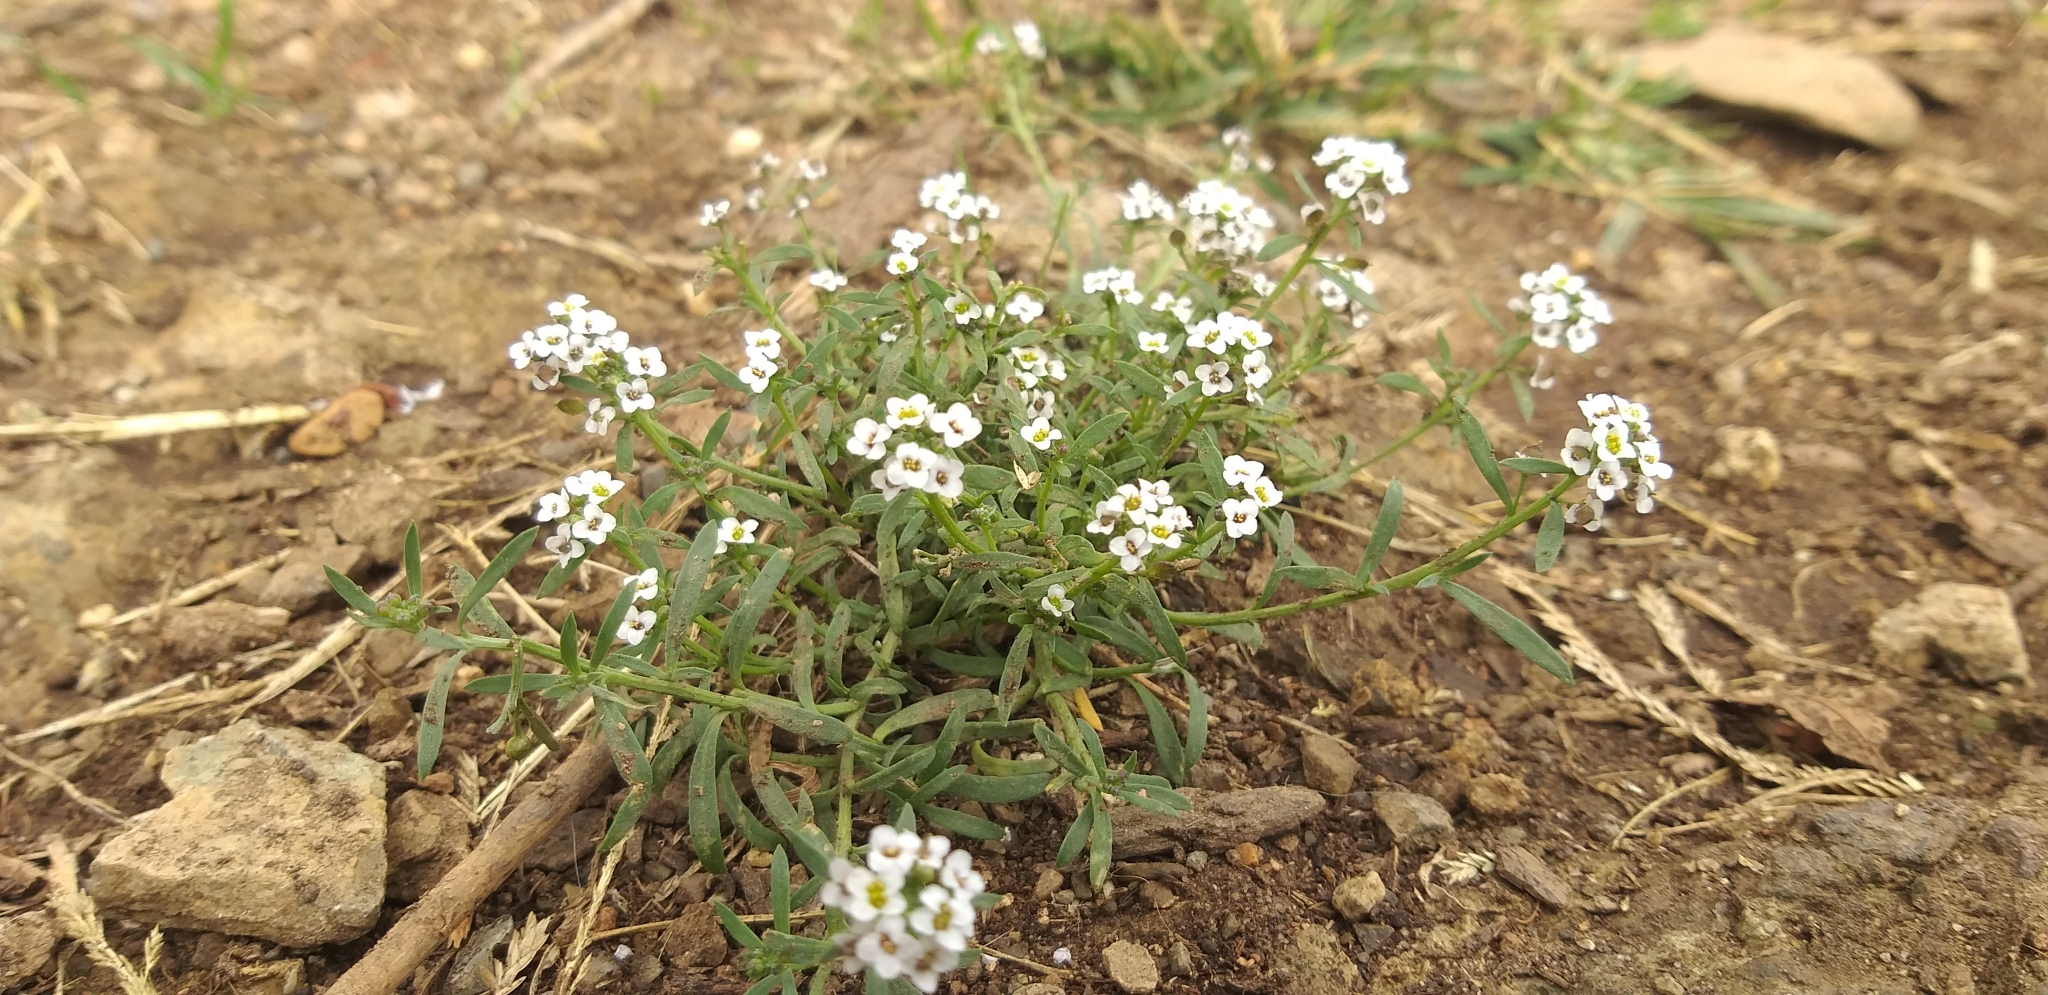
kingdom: Plantae
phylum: Tracheophyta
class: Magnoliopsida
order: Brassicales
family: Brassicaceae
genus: Lobularia
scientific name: Lobularia maritima
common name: Sweet alison
